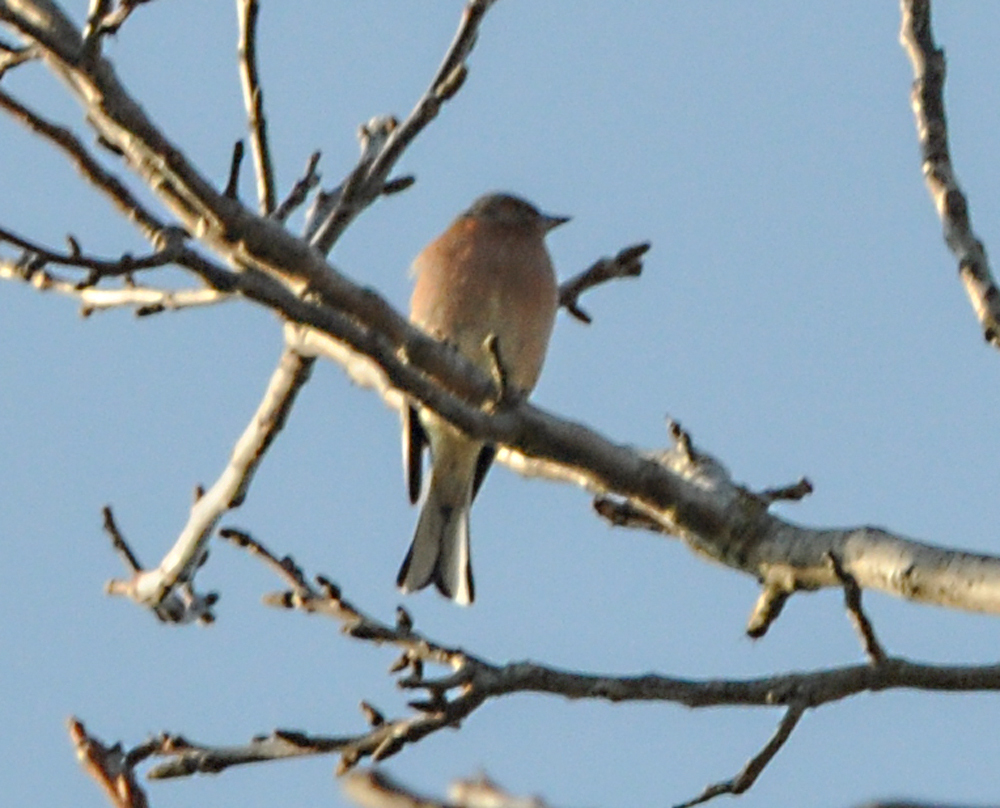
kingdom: Animalia
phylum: Chordata
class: Aves
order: Passeriformes
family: Fringillidae
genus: Fringilla
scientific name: Fringilla coelebs
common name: Common chaffinch
